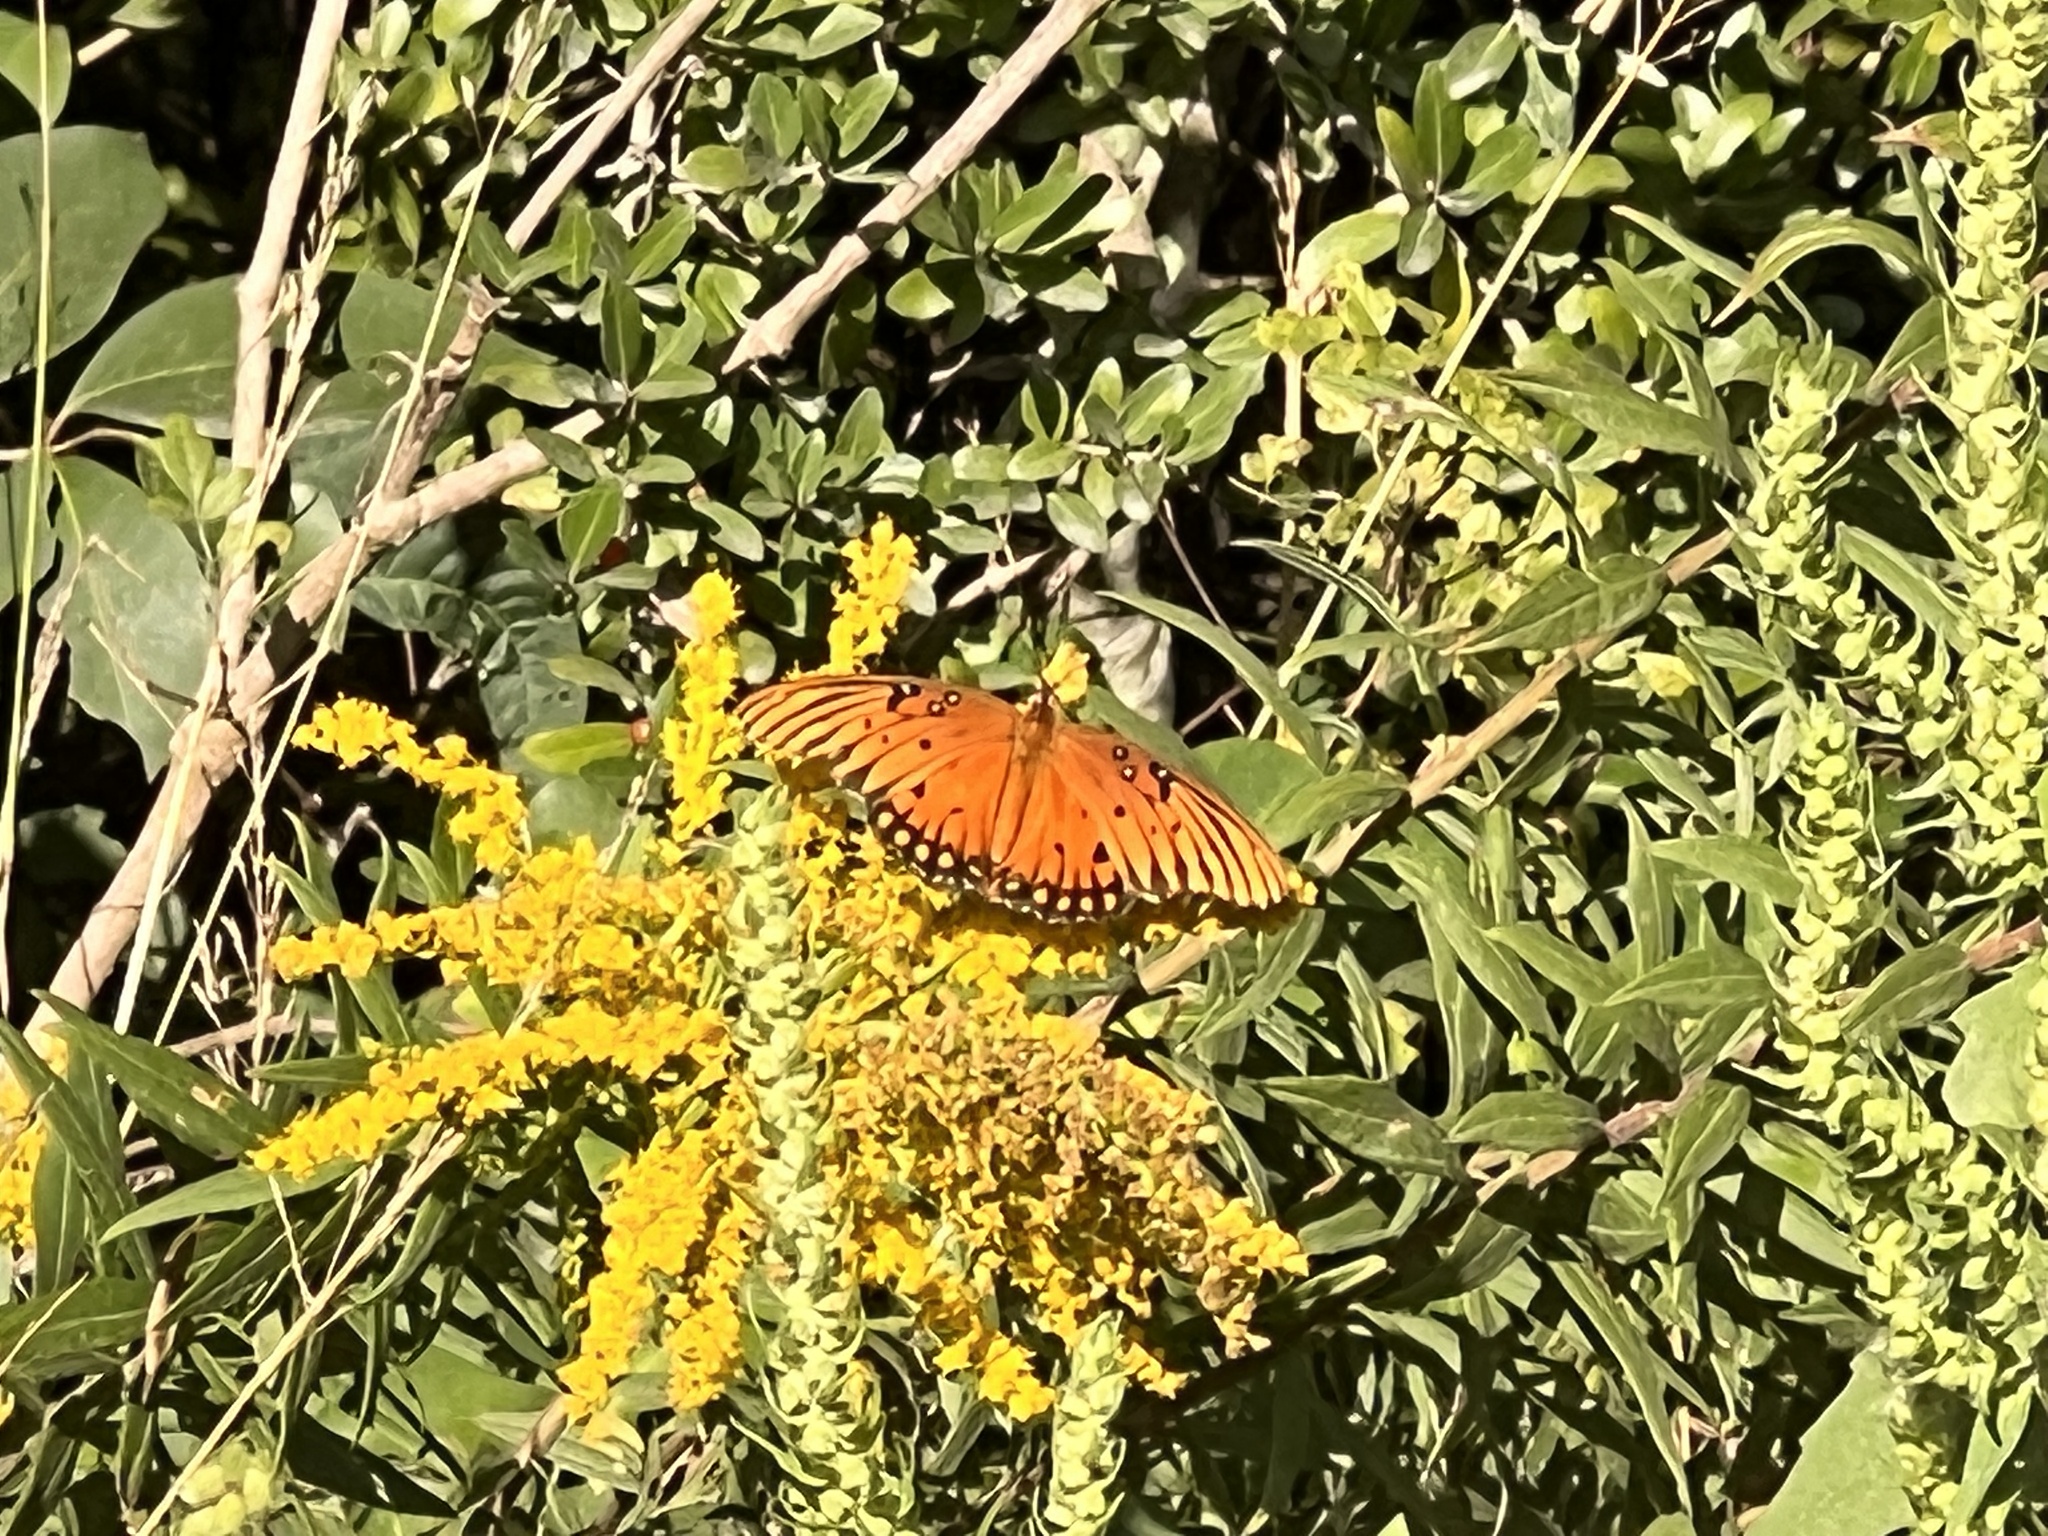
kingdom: Animalia
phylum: Arthropoda
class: Insecta
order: Lepidoptera
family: Nymphalidae
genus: Dione
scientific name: Dione vanillae
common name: Gulf fritillary
